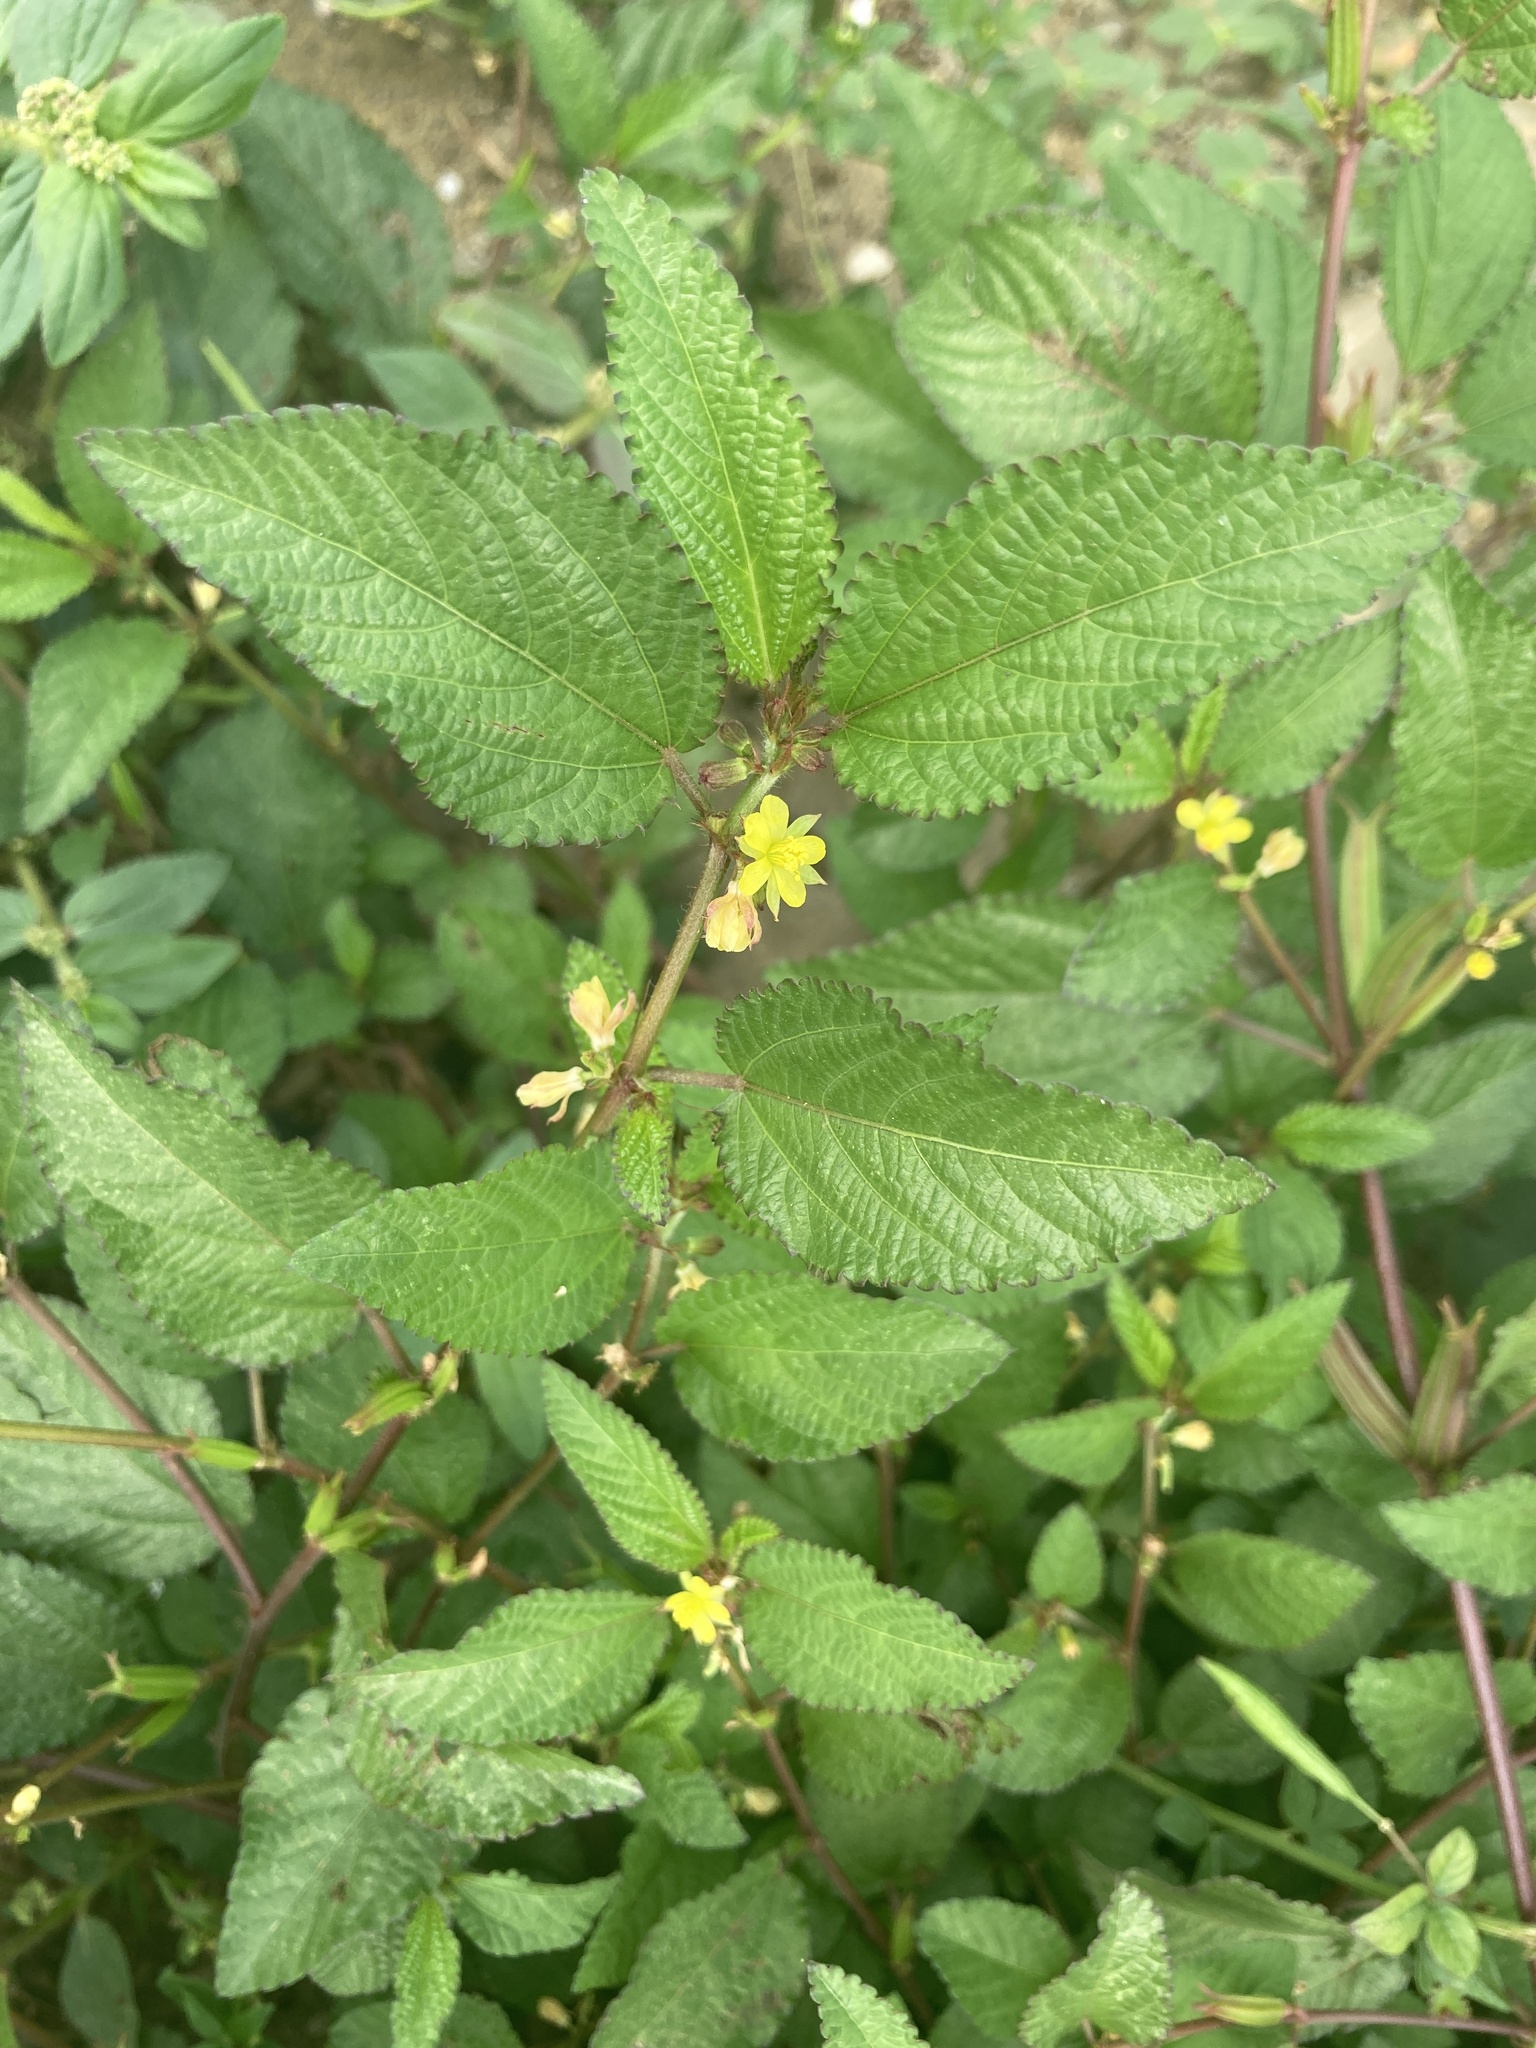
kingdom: Plantae
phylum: Tracheophyta
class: Magnoliopsida
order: Malvales
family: Malvaceae
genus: Corchorus
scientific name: Corchorus aestuans
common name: Jute
